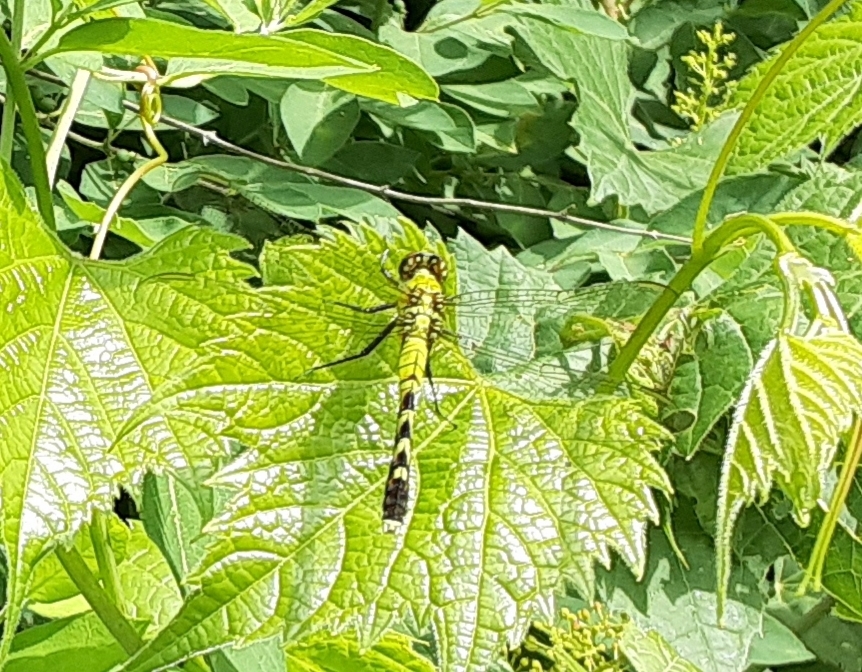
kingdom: Animalia
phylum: Arthropoda
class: Insecta
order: Odonata
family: Libellulidae
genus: Erythemis
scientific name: Erythemis simplicicollis
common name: Eastern pondhawk
